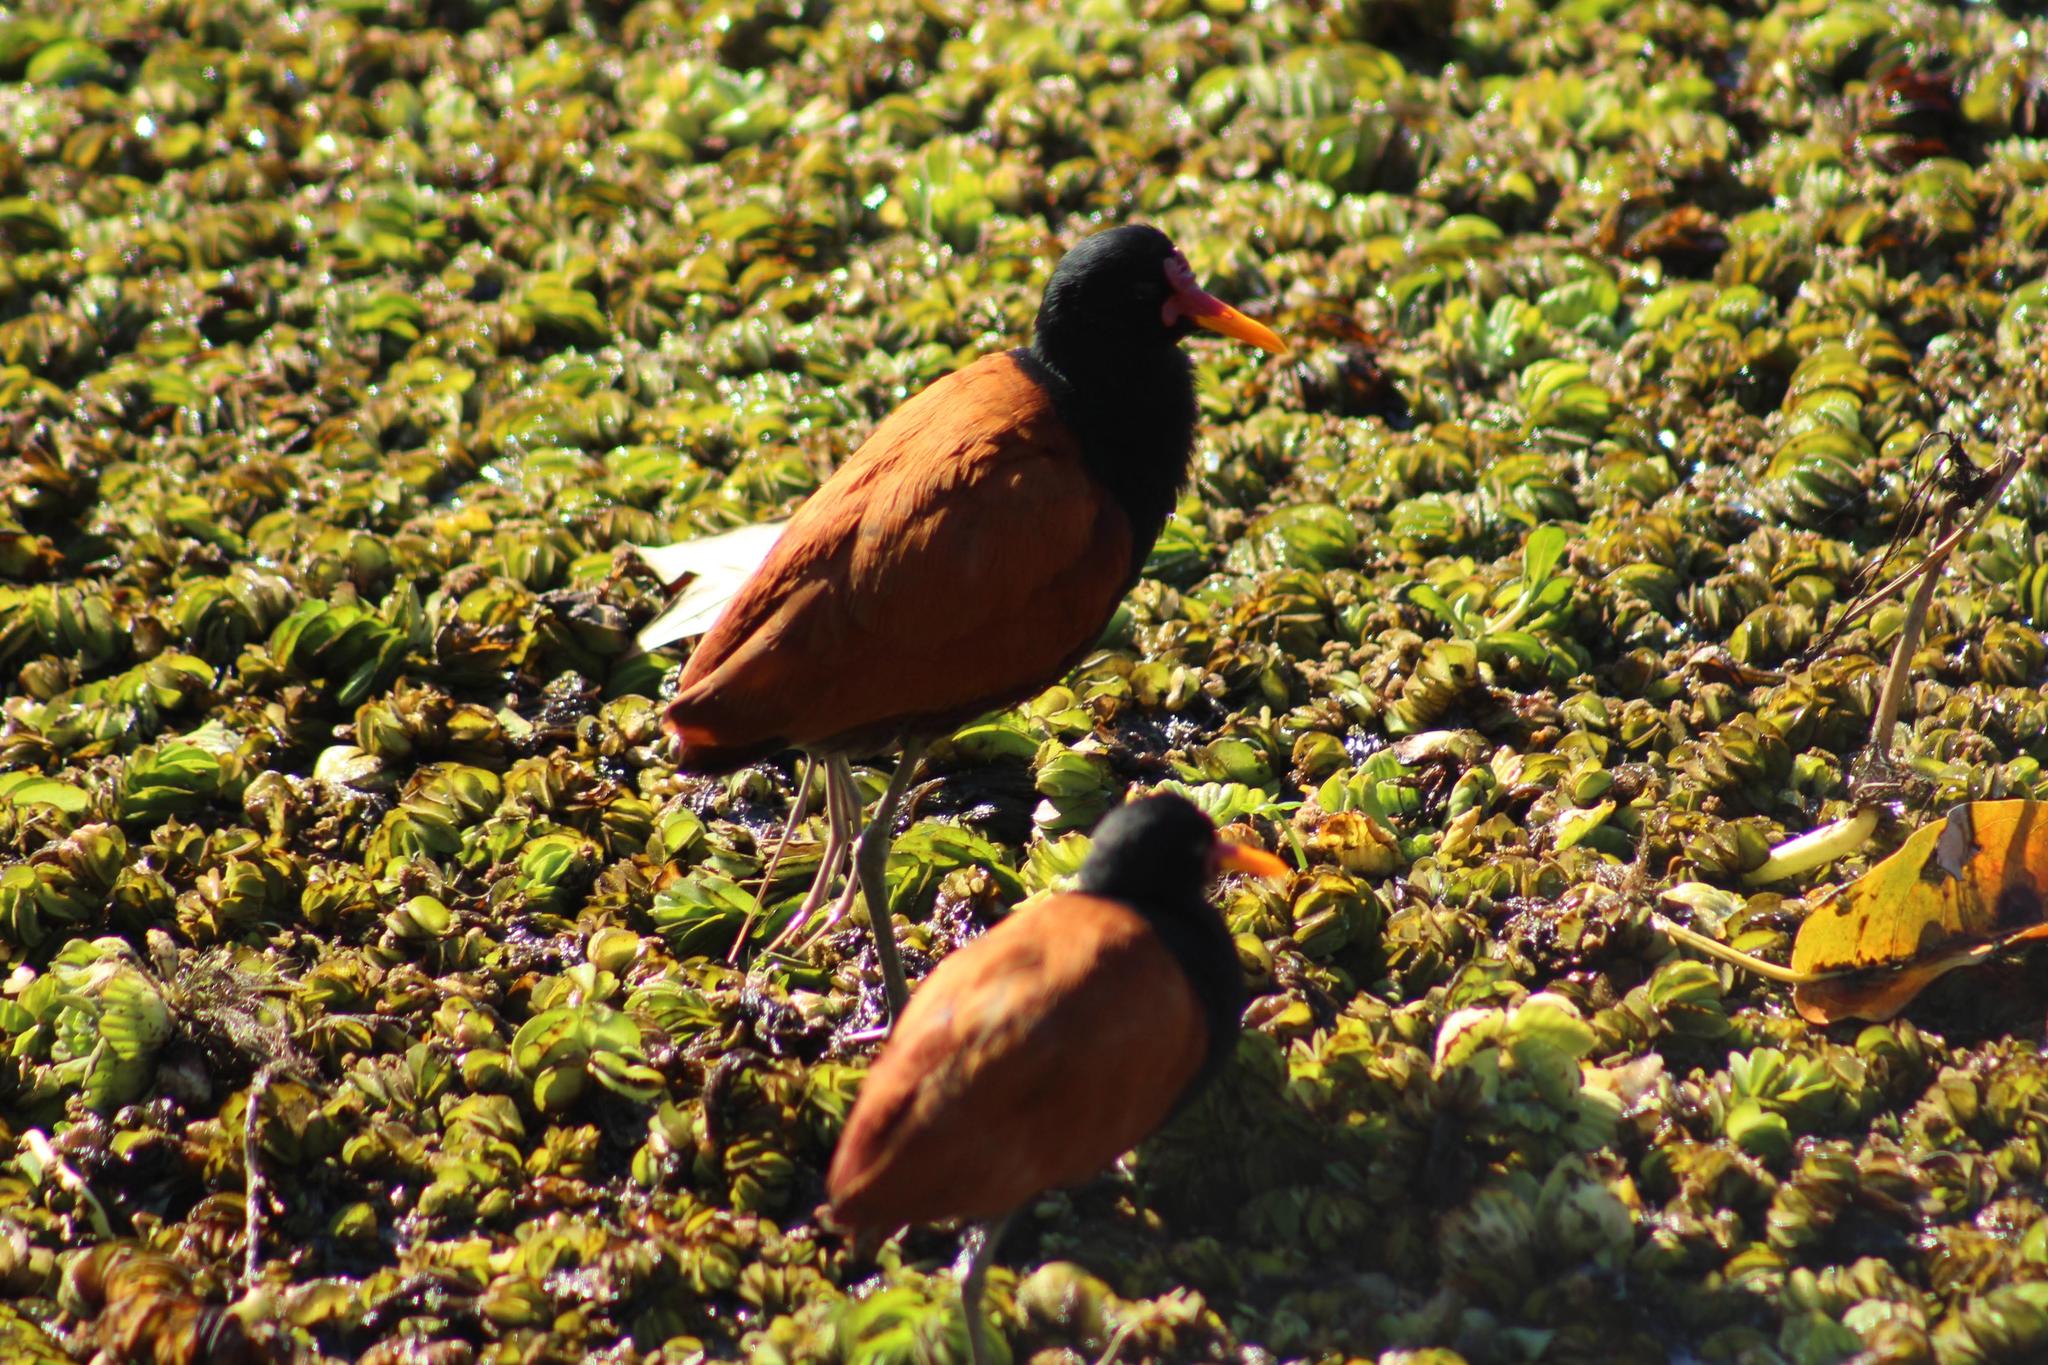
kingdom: Animalia
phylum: Chordata
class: Aves
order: Charadriiformes
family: Jacanidae
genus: Jacana
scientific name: Jacana jacana
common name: Wattled jacana
